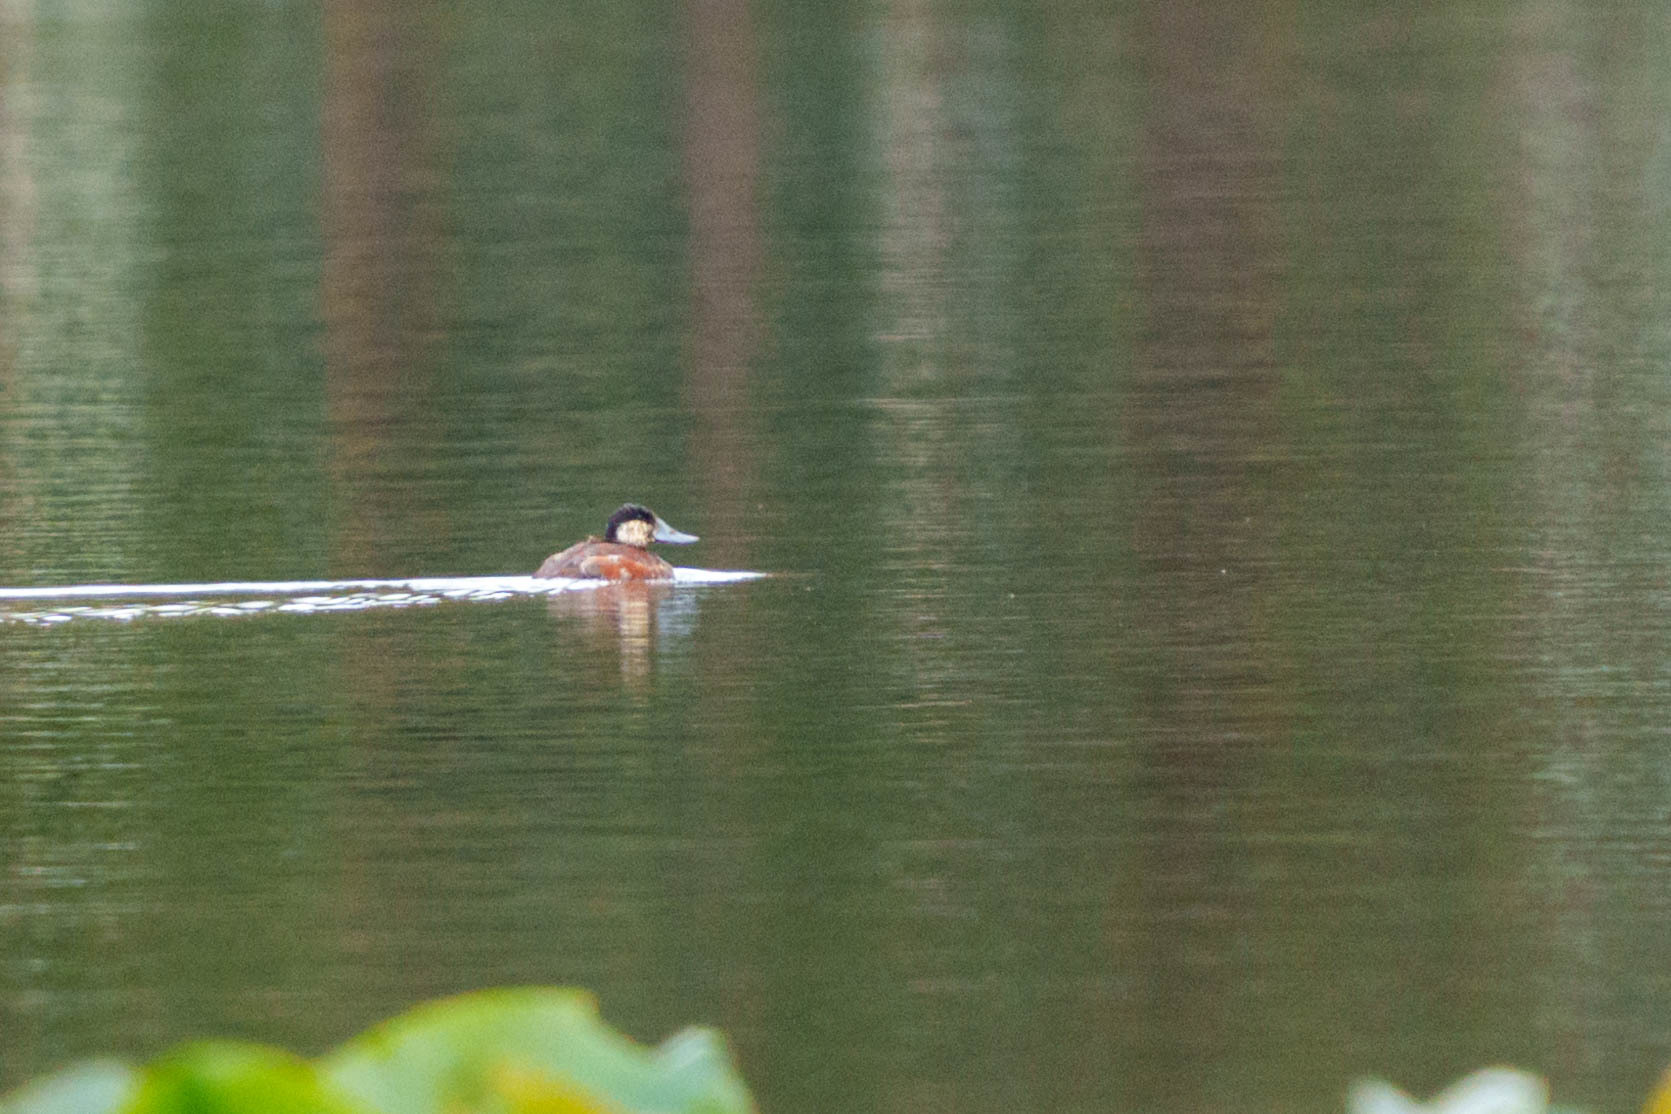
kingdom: Animalia
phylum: Chordata
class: Aves
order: Anseriformes
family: Anatidae
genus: Oxyura
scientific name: Oxyura jamaicensis
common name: Ruddy duck
